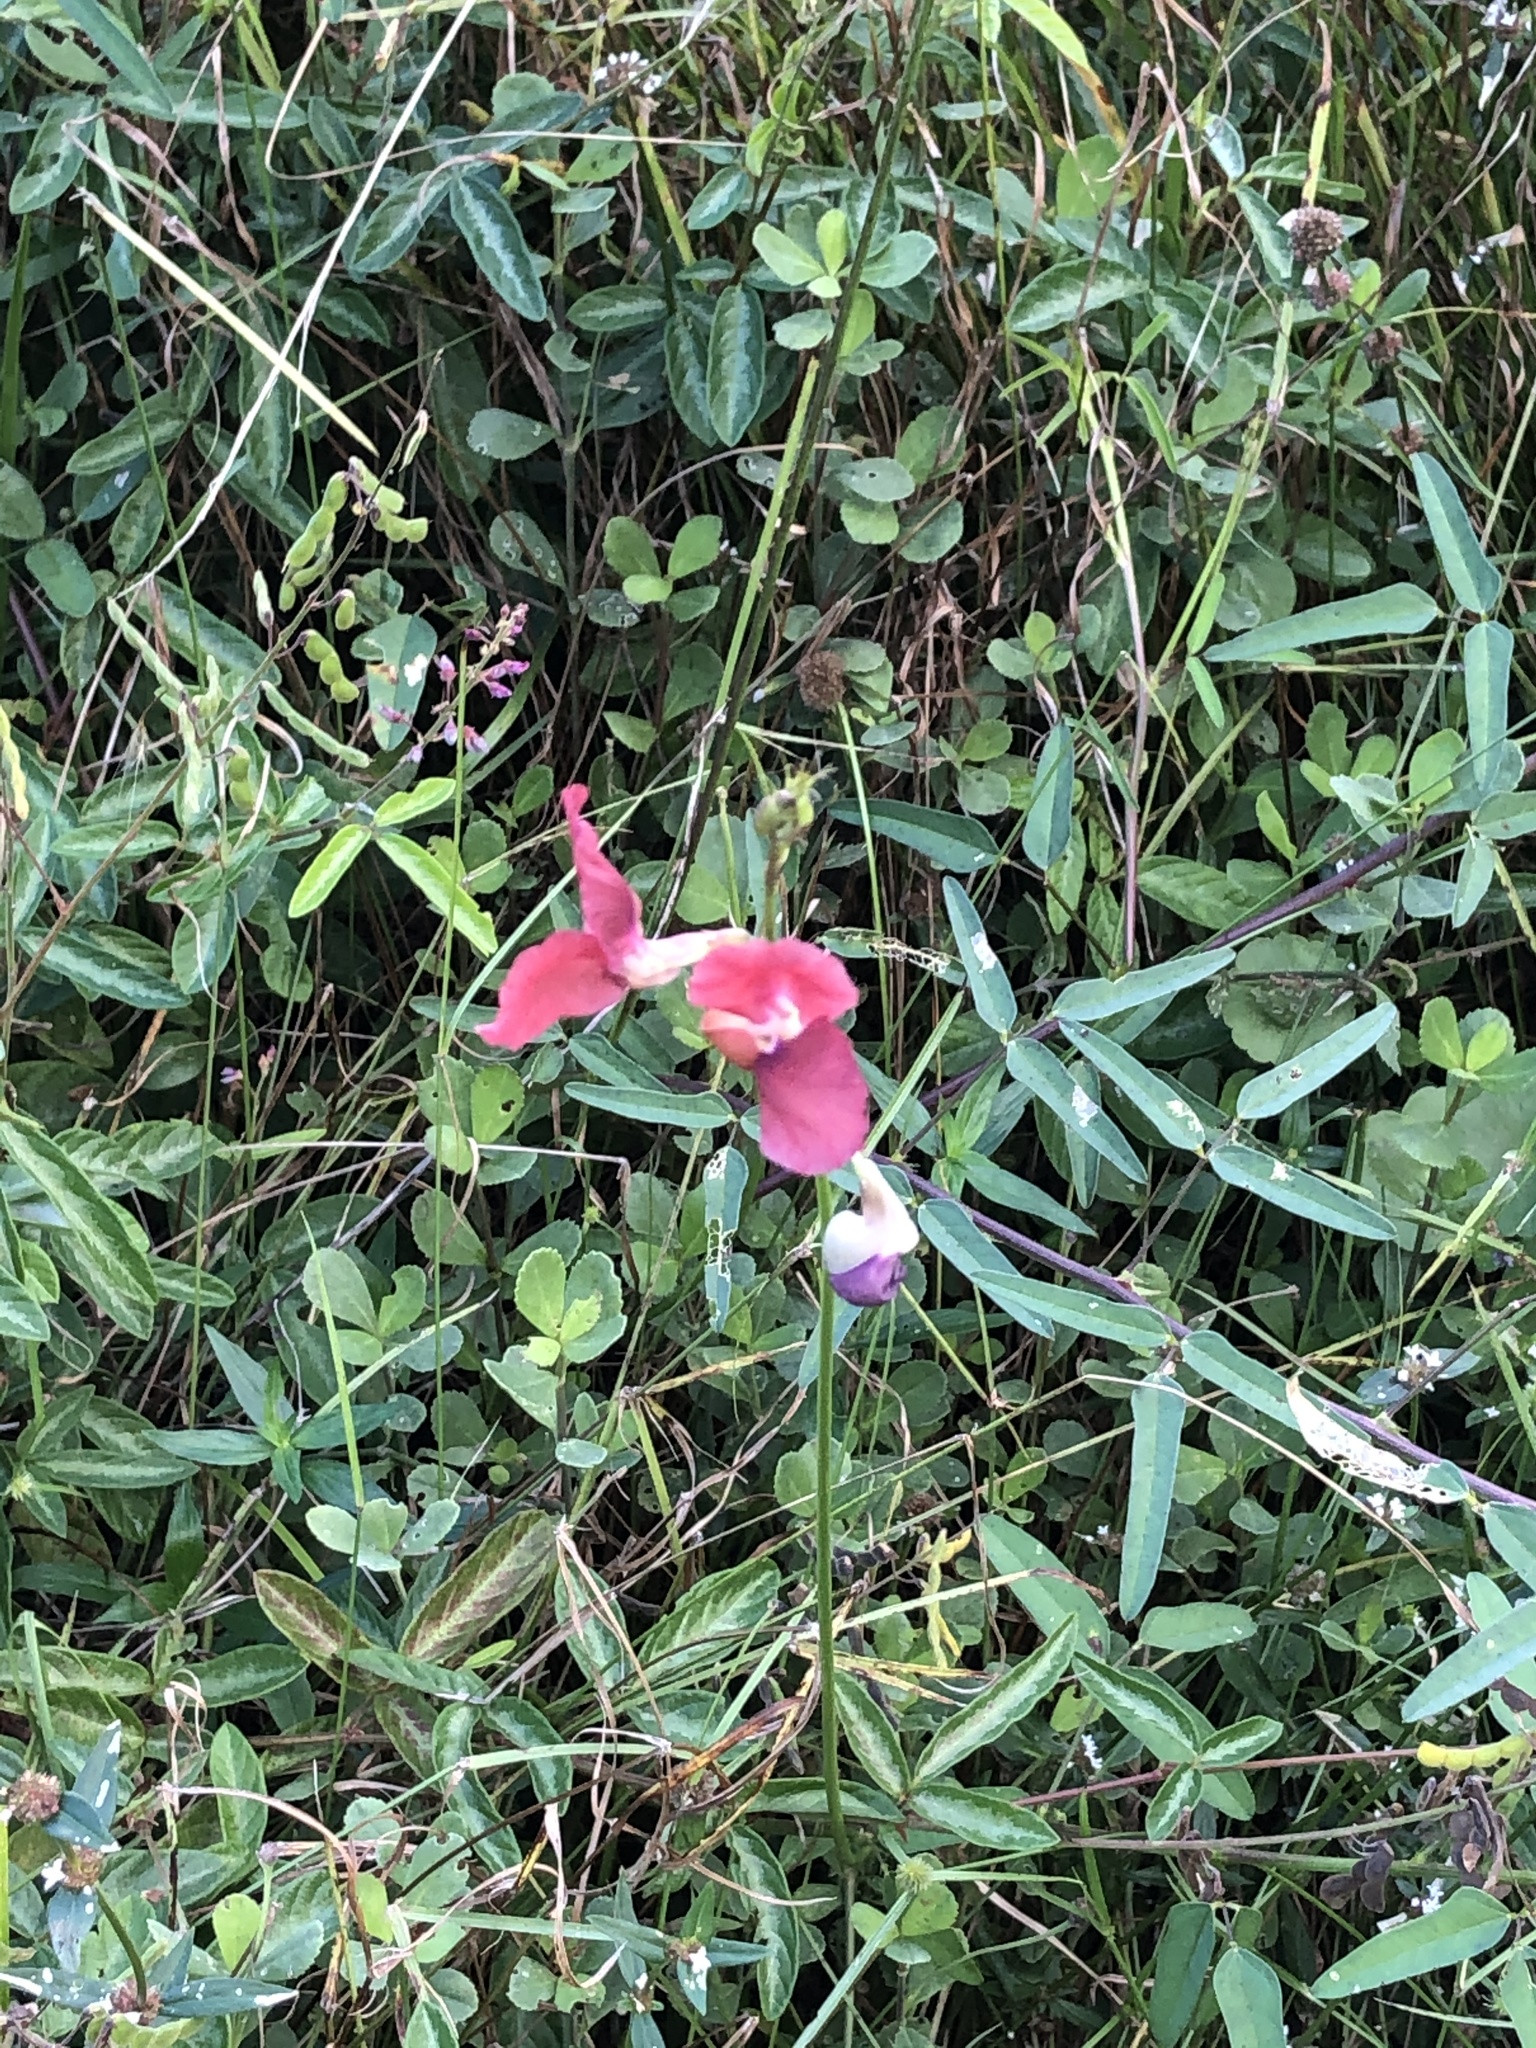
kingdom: Plantae
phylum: Tracheophyta
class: Magnoliopsida
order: Fabales
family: Fabaceae
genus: Macroptilium
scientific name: Macroptilium lathyroides
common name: Wild bushbean
